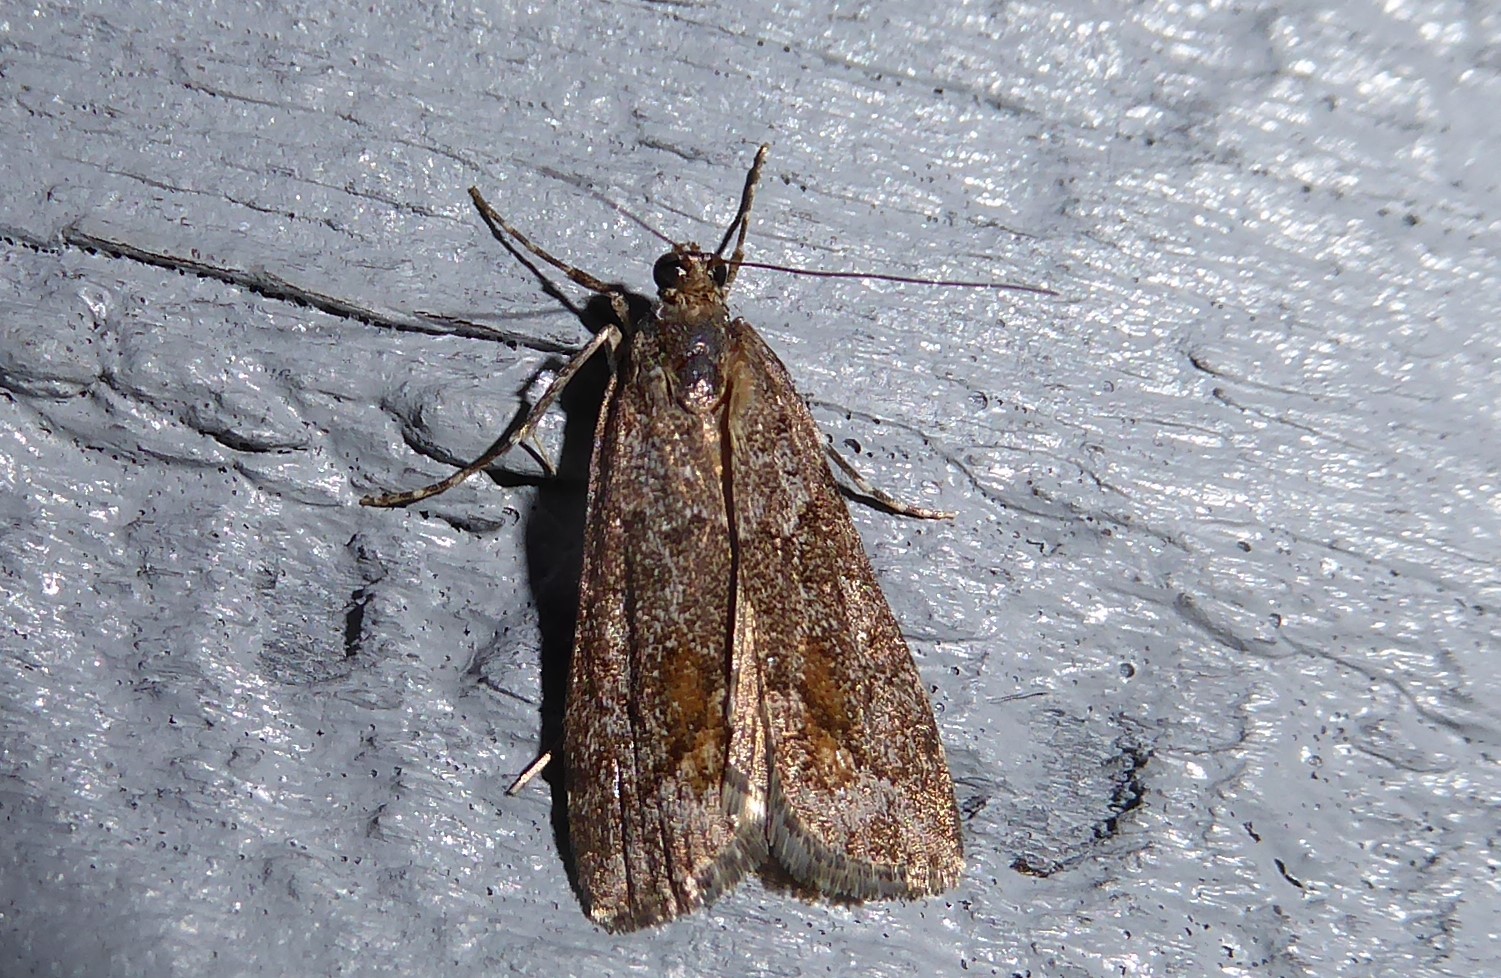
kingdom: Animalia
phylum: Arthropoda
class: Insecta
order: Lepidoptera
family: Crambidae
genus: Eudonia
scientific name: Eudonia submarginalis
